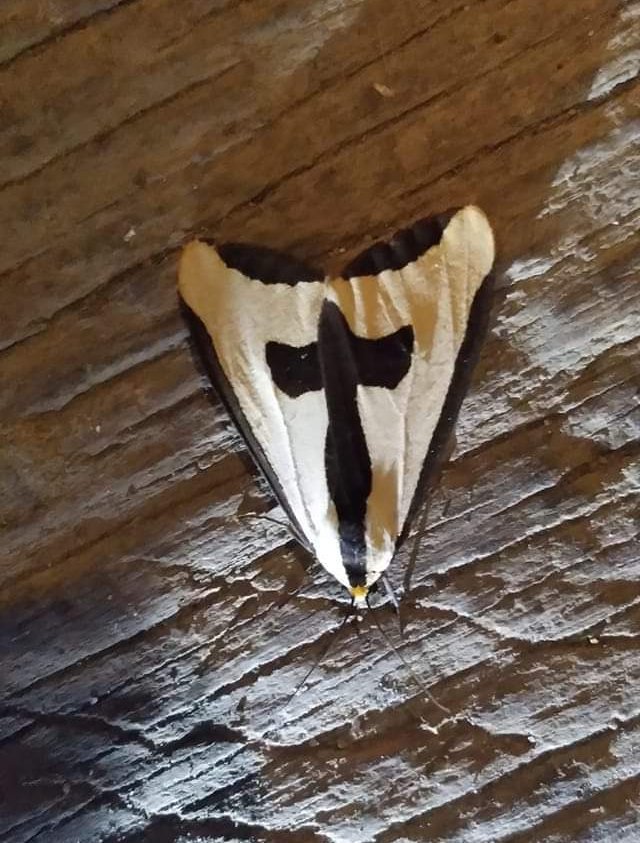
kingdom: Animalia
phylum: Arthropoda
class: Insecta
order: Lepidoptera
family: Erebidae
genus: Haploa
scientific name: Haploa clymene
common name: Clymene moth
